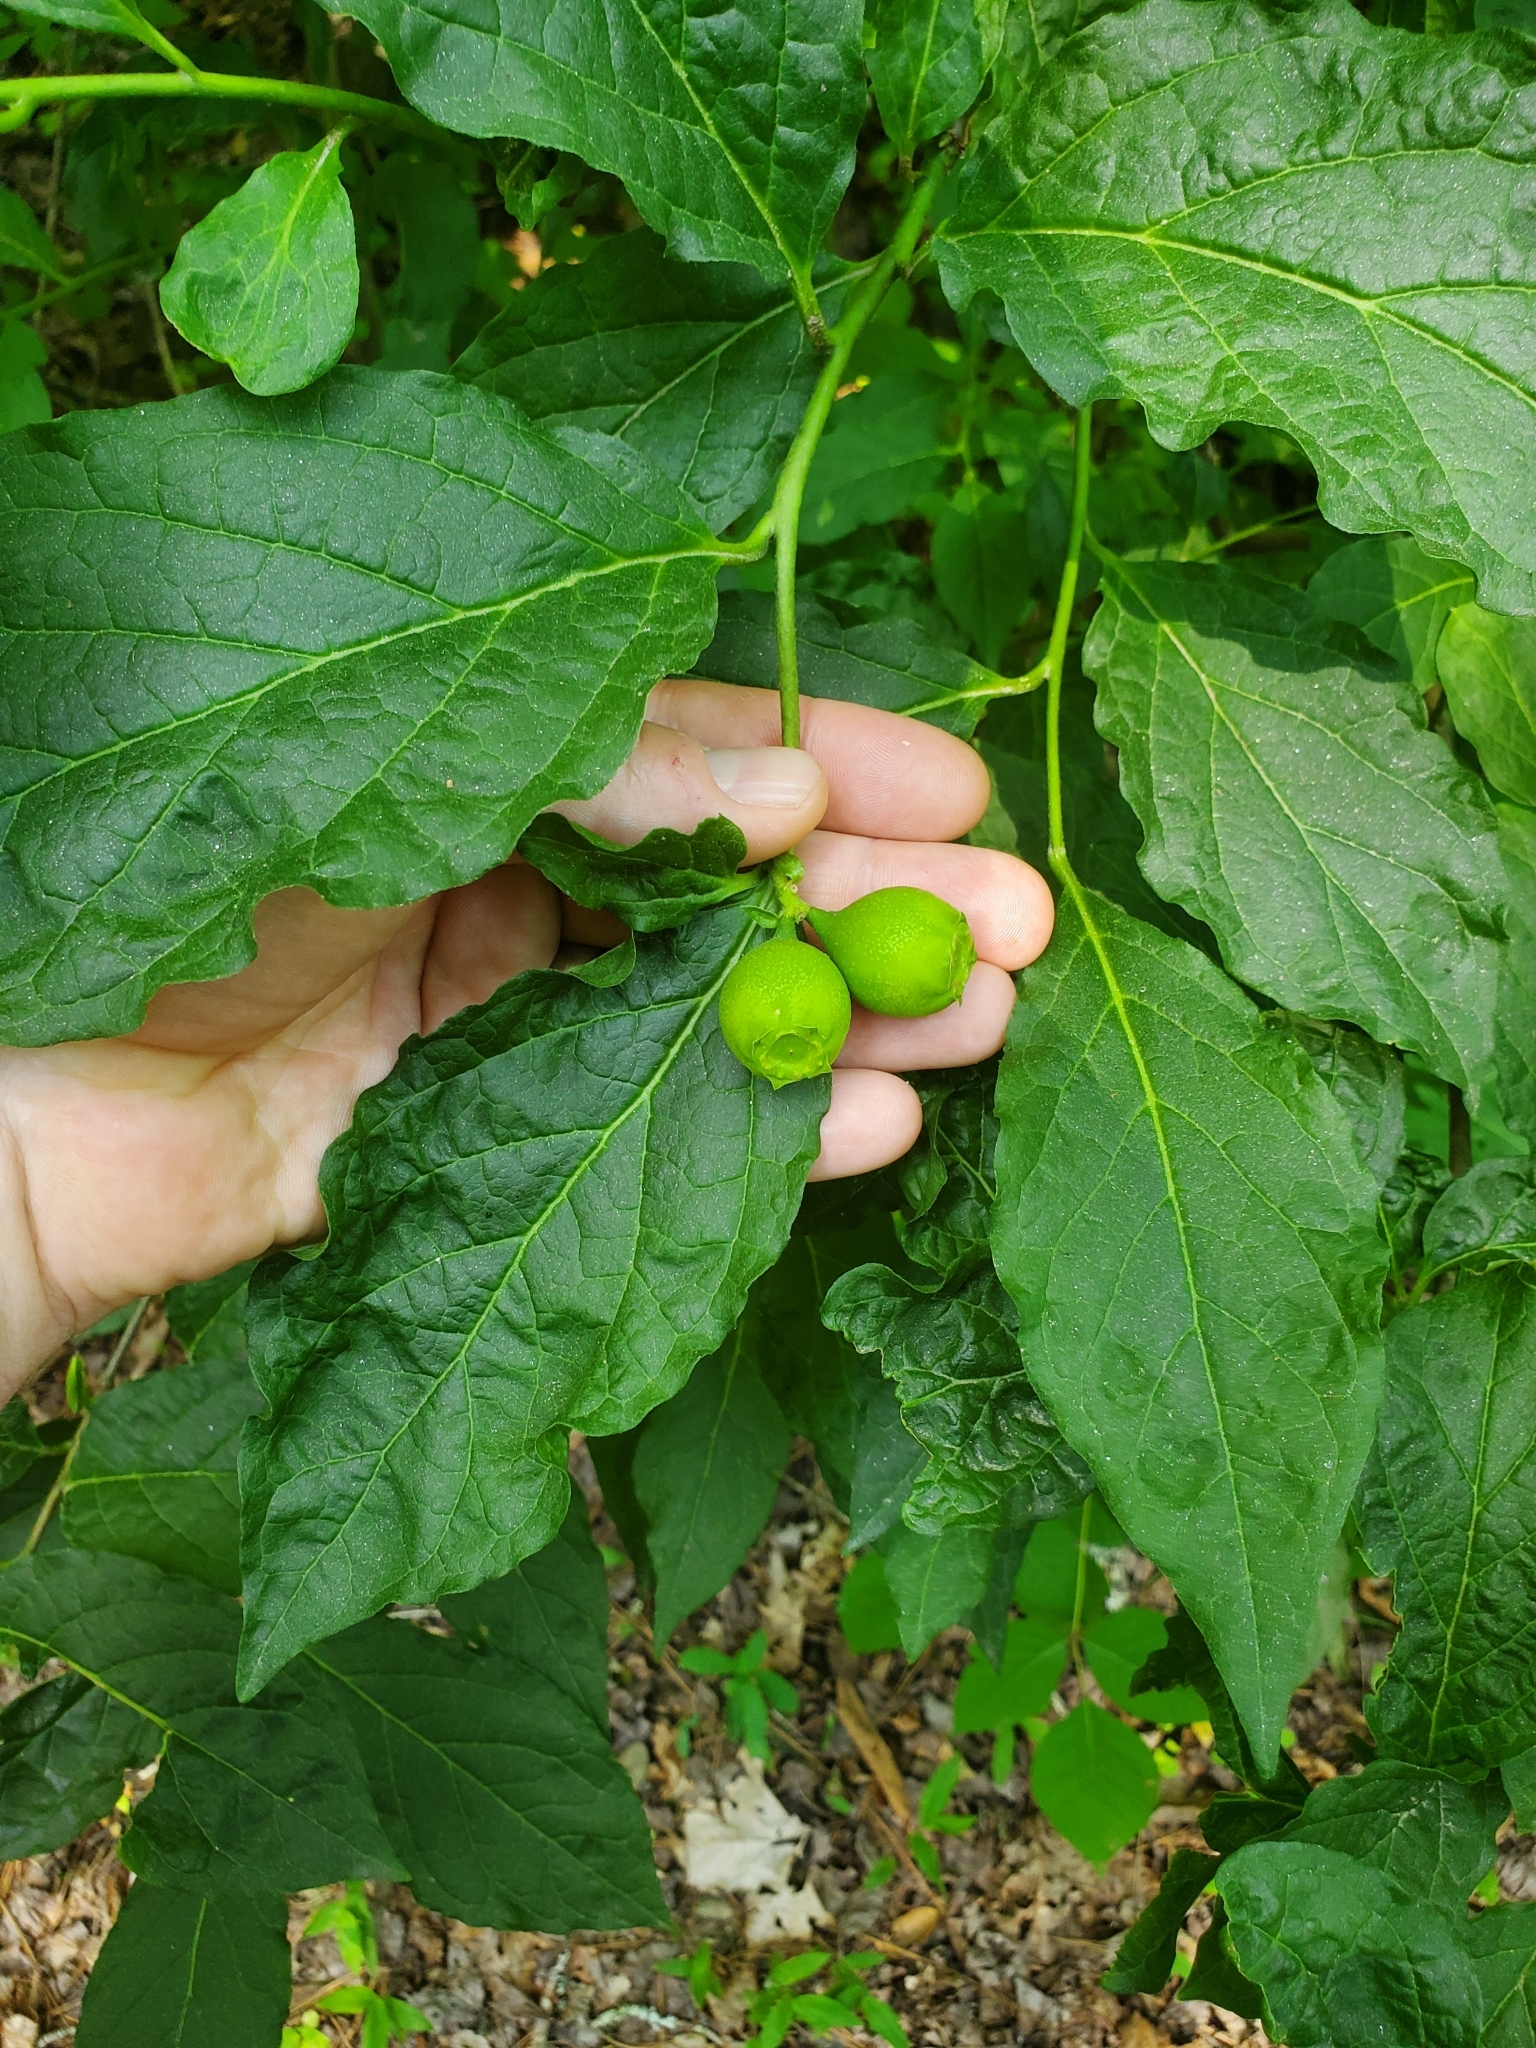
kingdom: Plantae
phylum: Tracheophyta
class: Magnoliopsida
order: Santalales
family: Cervantesiaceae
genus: Pyrularia
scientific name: Pyrularia pubera
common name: Oilnut
